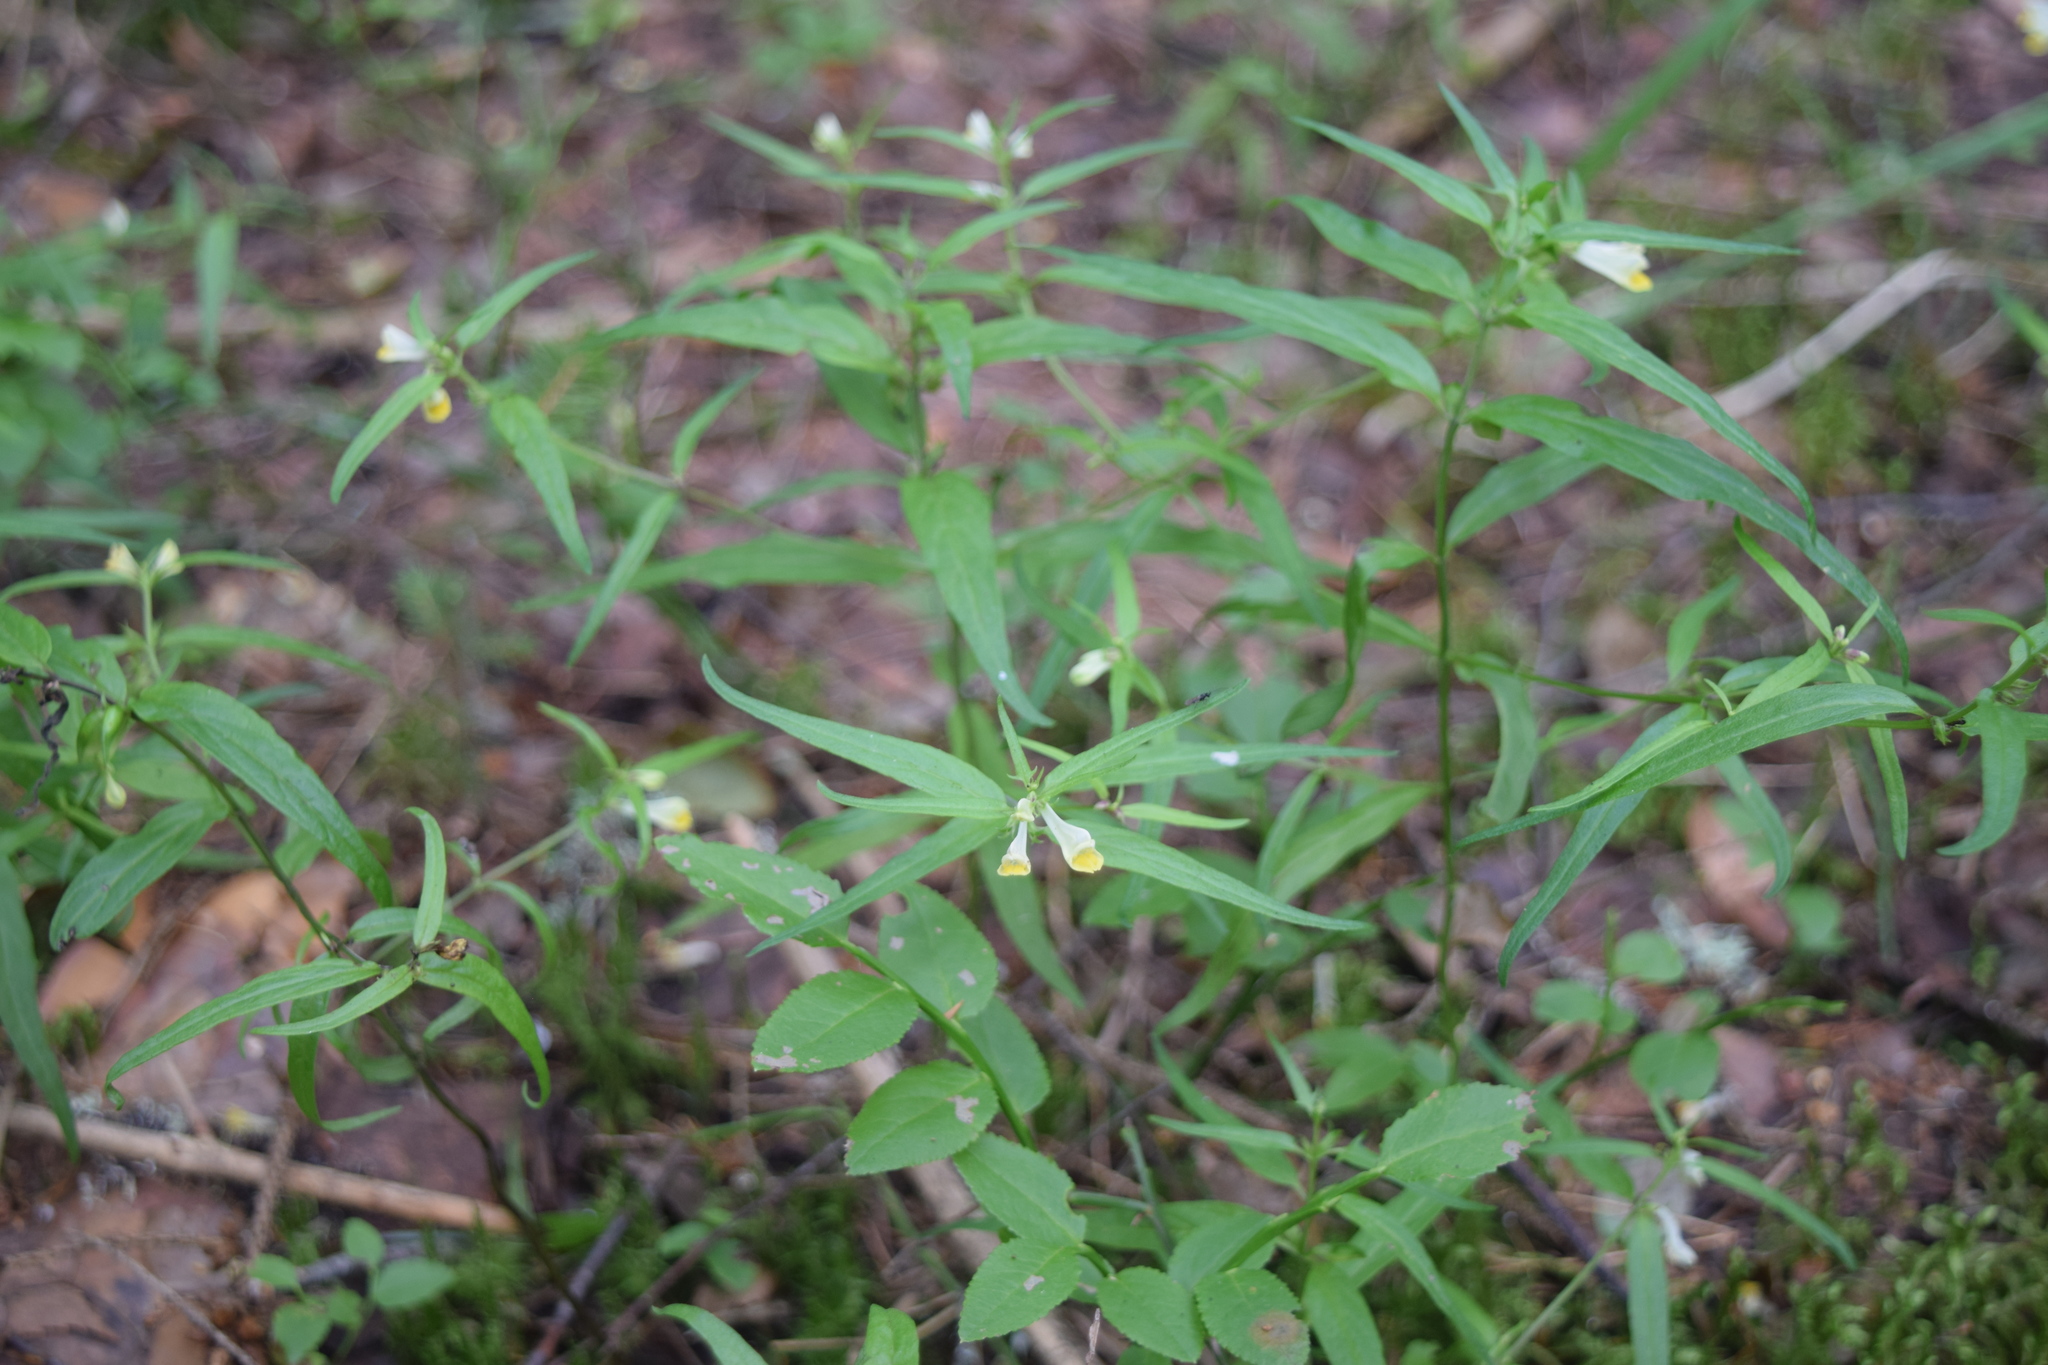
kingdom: Plantae
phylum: Tracheophyta
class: Magnoliopsida
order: Lamiales
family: Orobanchaceae
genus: Melampyrum
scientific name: Melampyrum pratense
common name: Common cow-wheat
